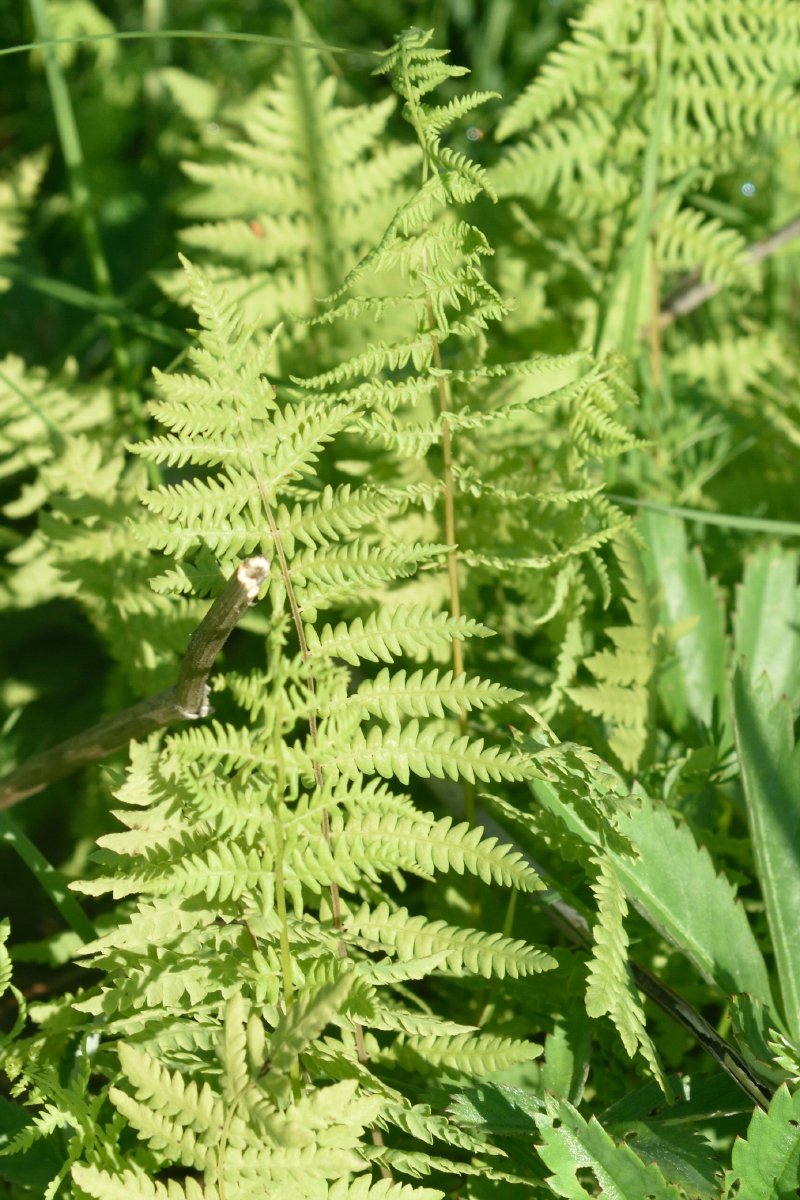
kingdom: Plantae
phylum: Tracheophyta
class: Polypodiopsida
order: Polypodiales
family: Thelypteridaceae
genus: Thelypteris
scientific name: Thelypteris palustris
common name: Marsh fern
